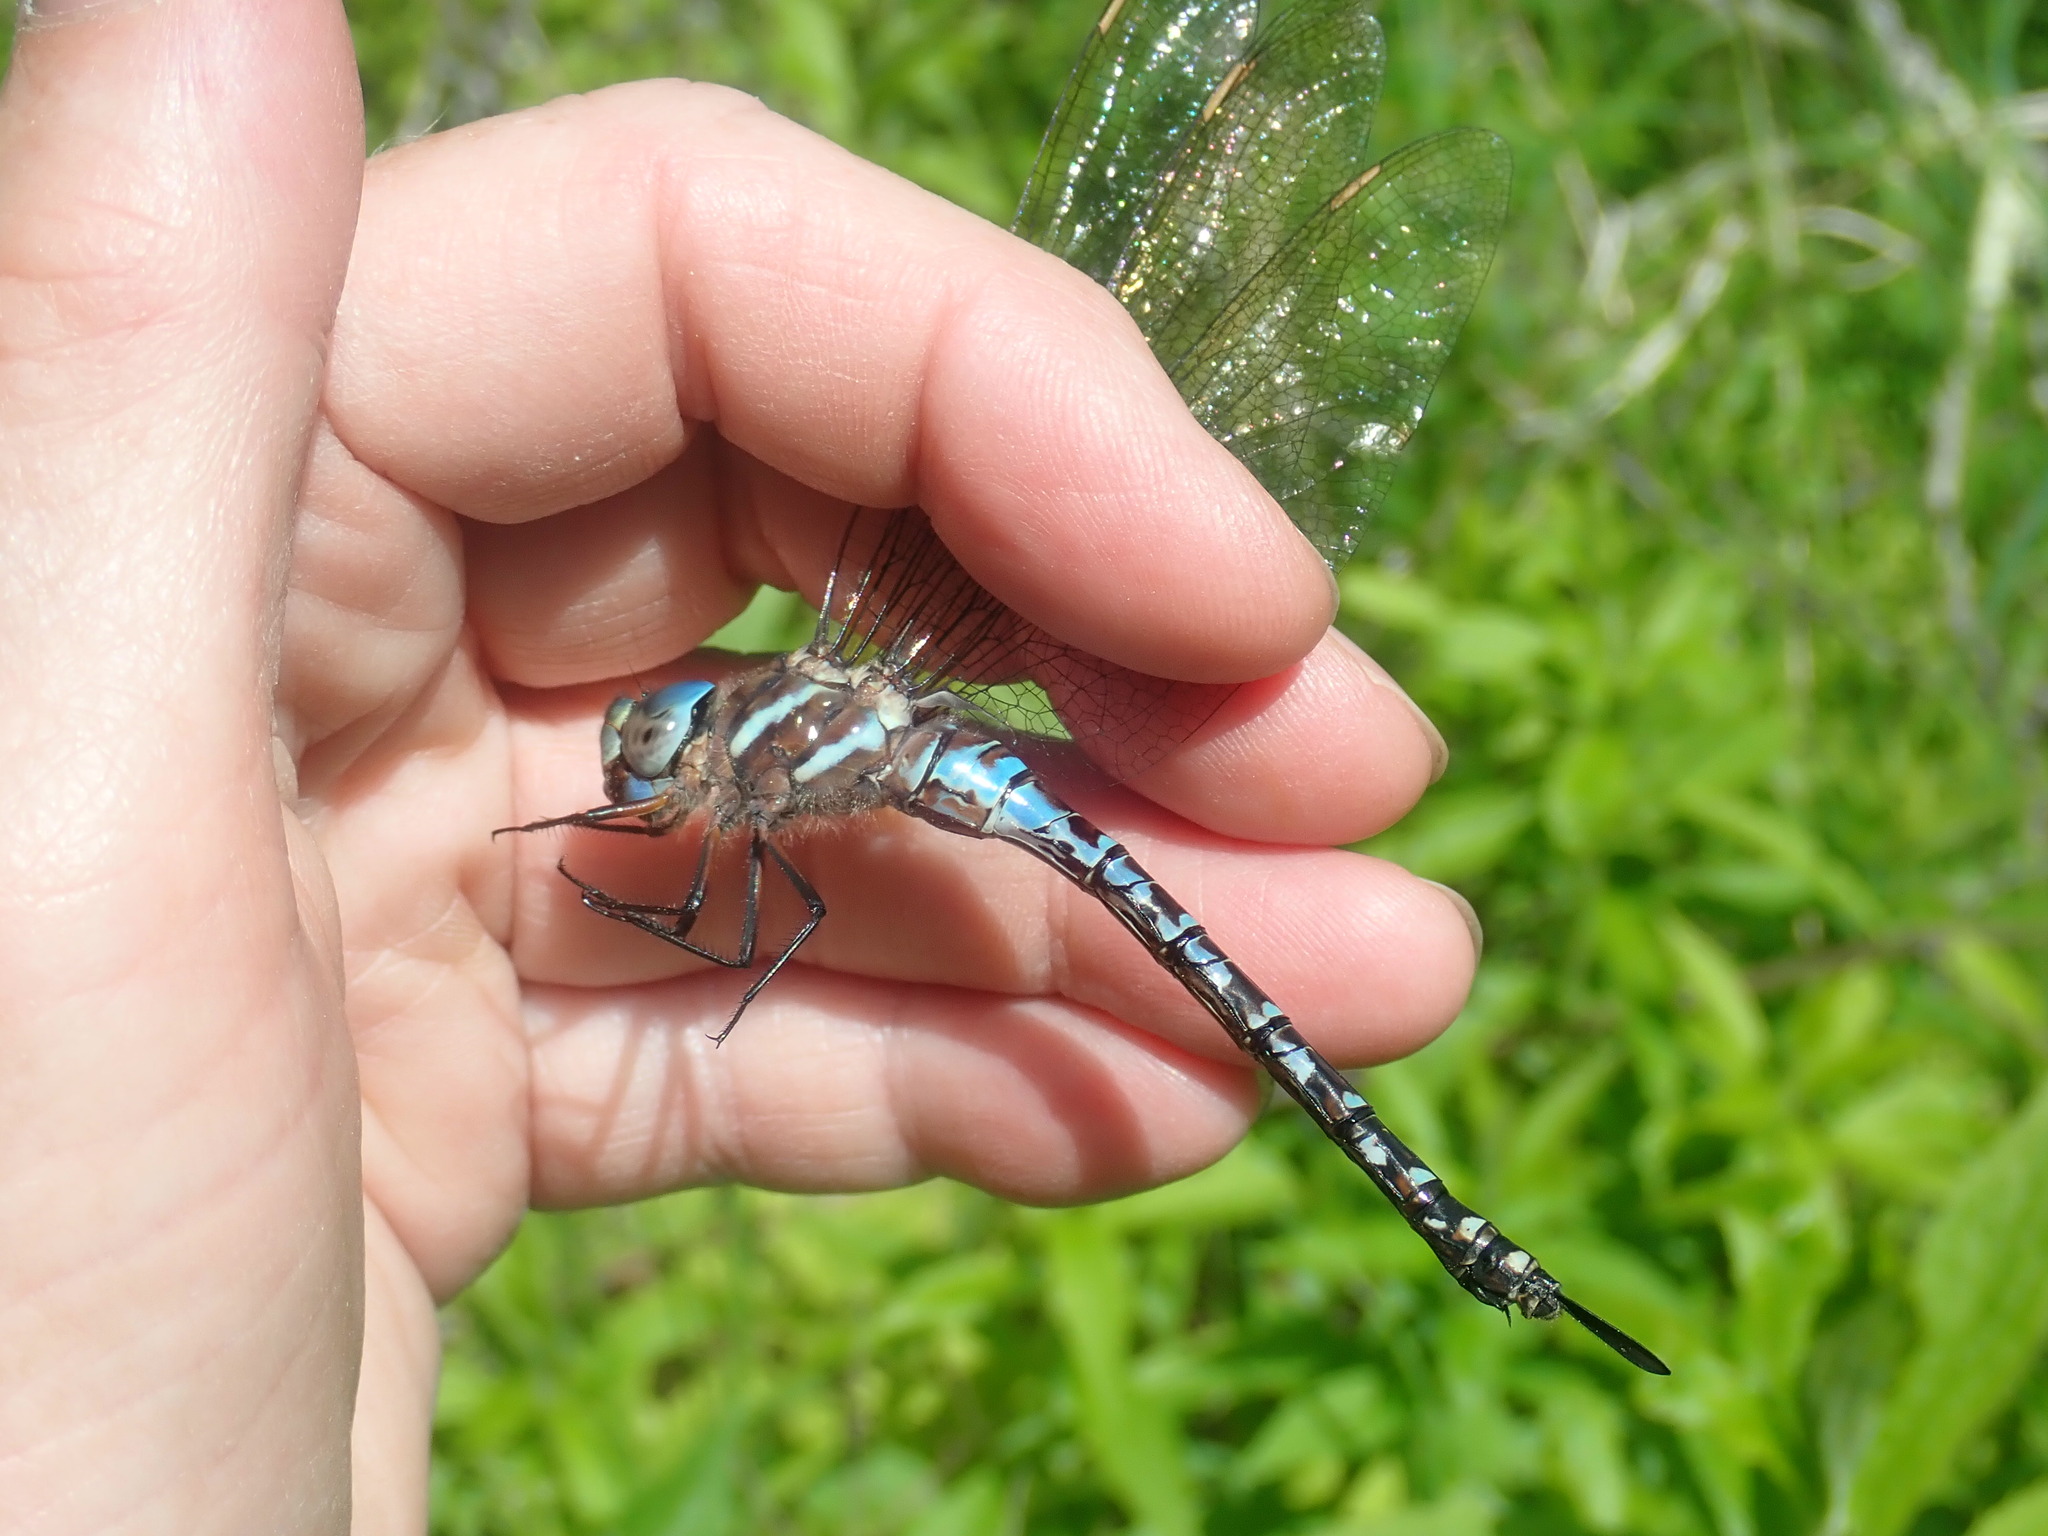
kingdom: Animalia
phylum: Arthropoda
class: Insecta
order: Odonata
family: Aeshnidae
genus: Rhionaeschna
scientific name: Rhionaeschna mutata
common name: Spatterdock darner
